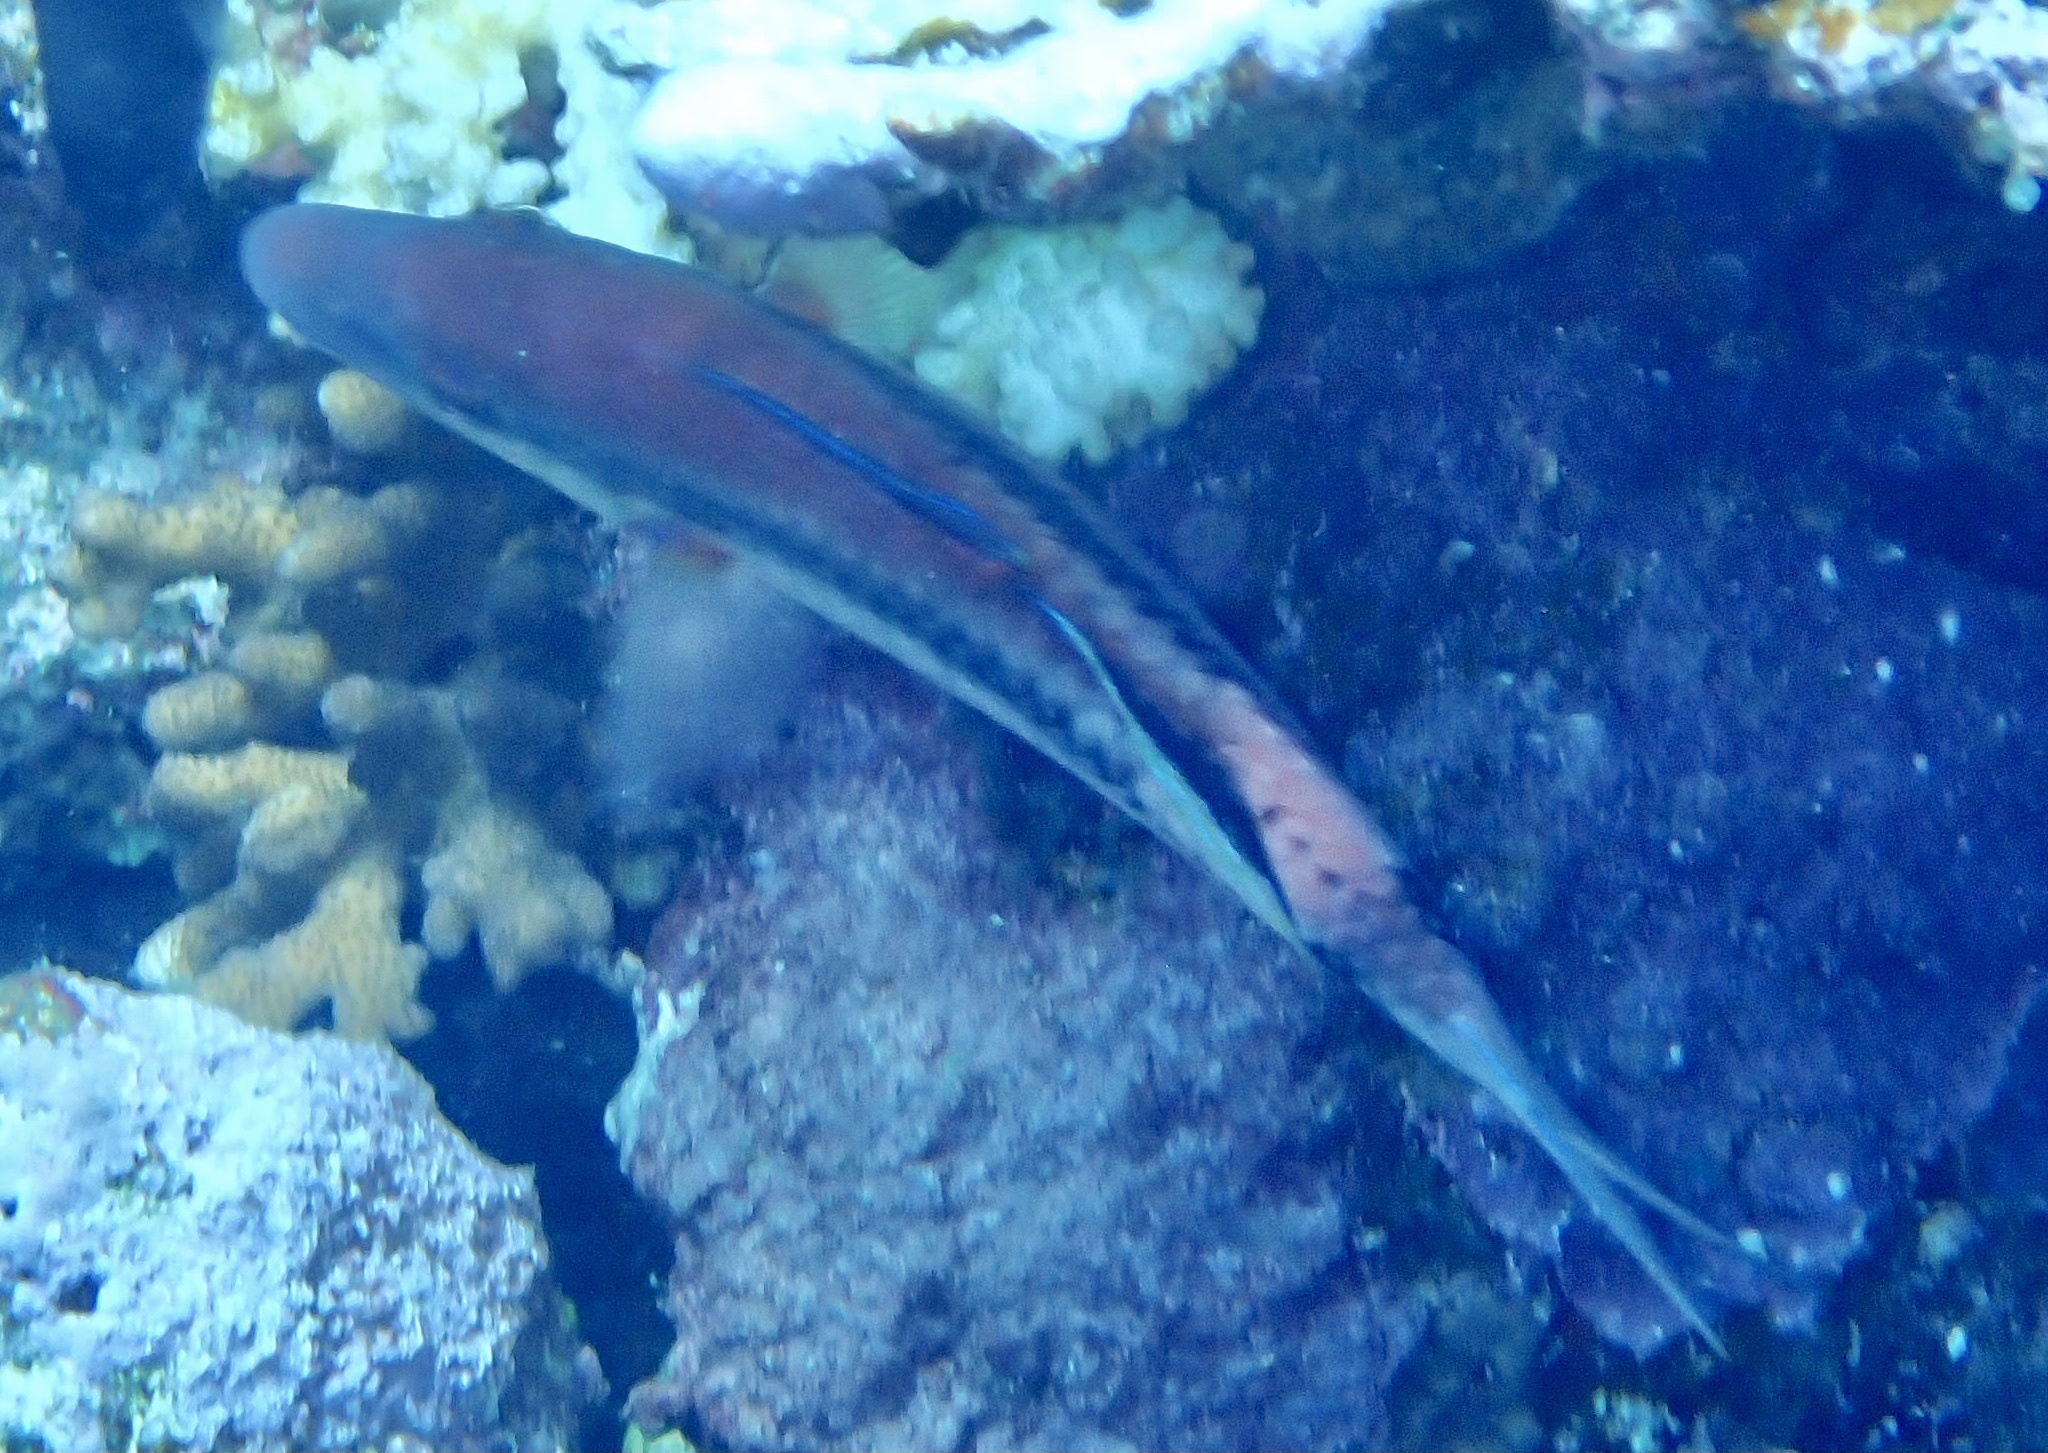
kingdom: Animalia
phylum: Chordata
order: Perciformes
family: Mullidae
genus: Parupeneus
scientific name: Parupeneus macronemus
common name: Long-barbel goatfish
